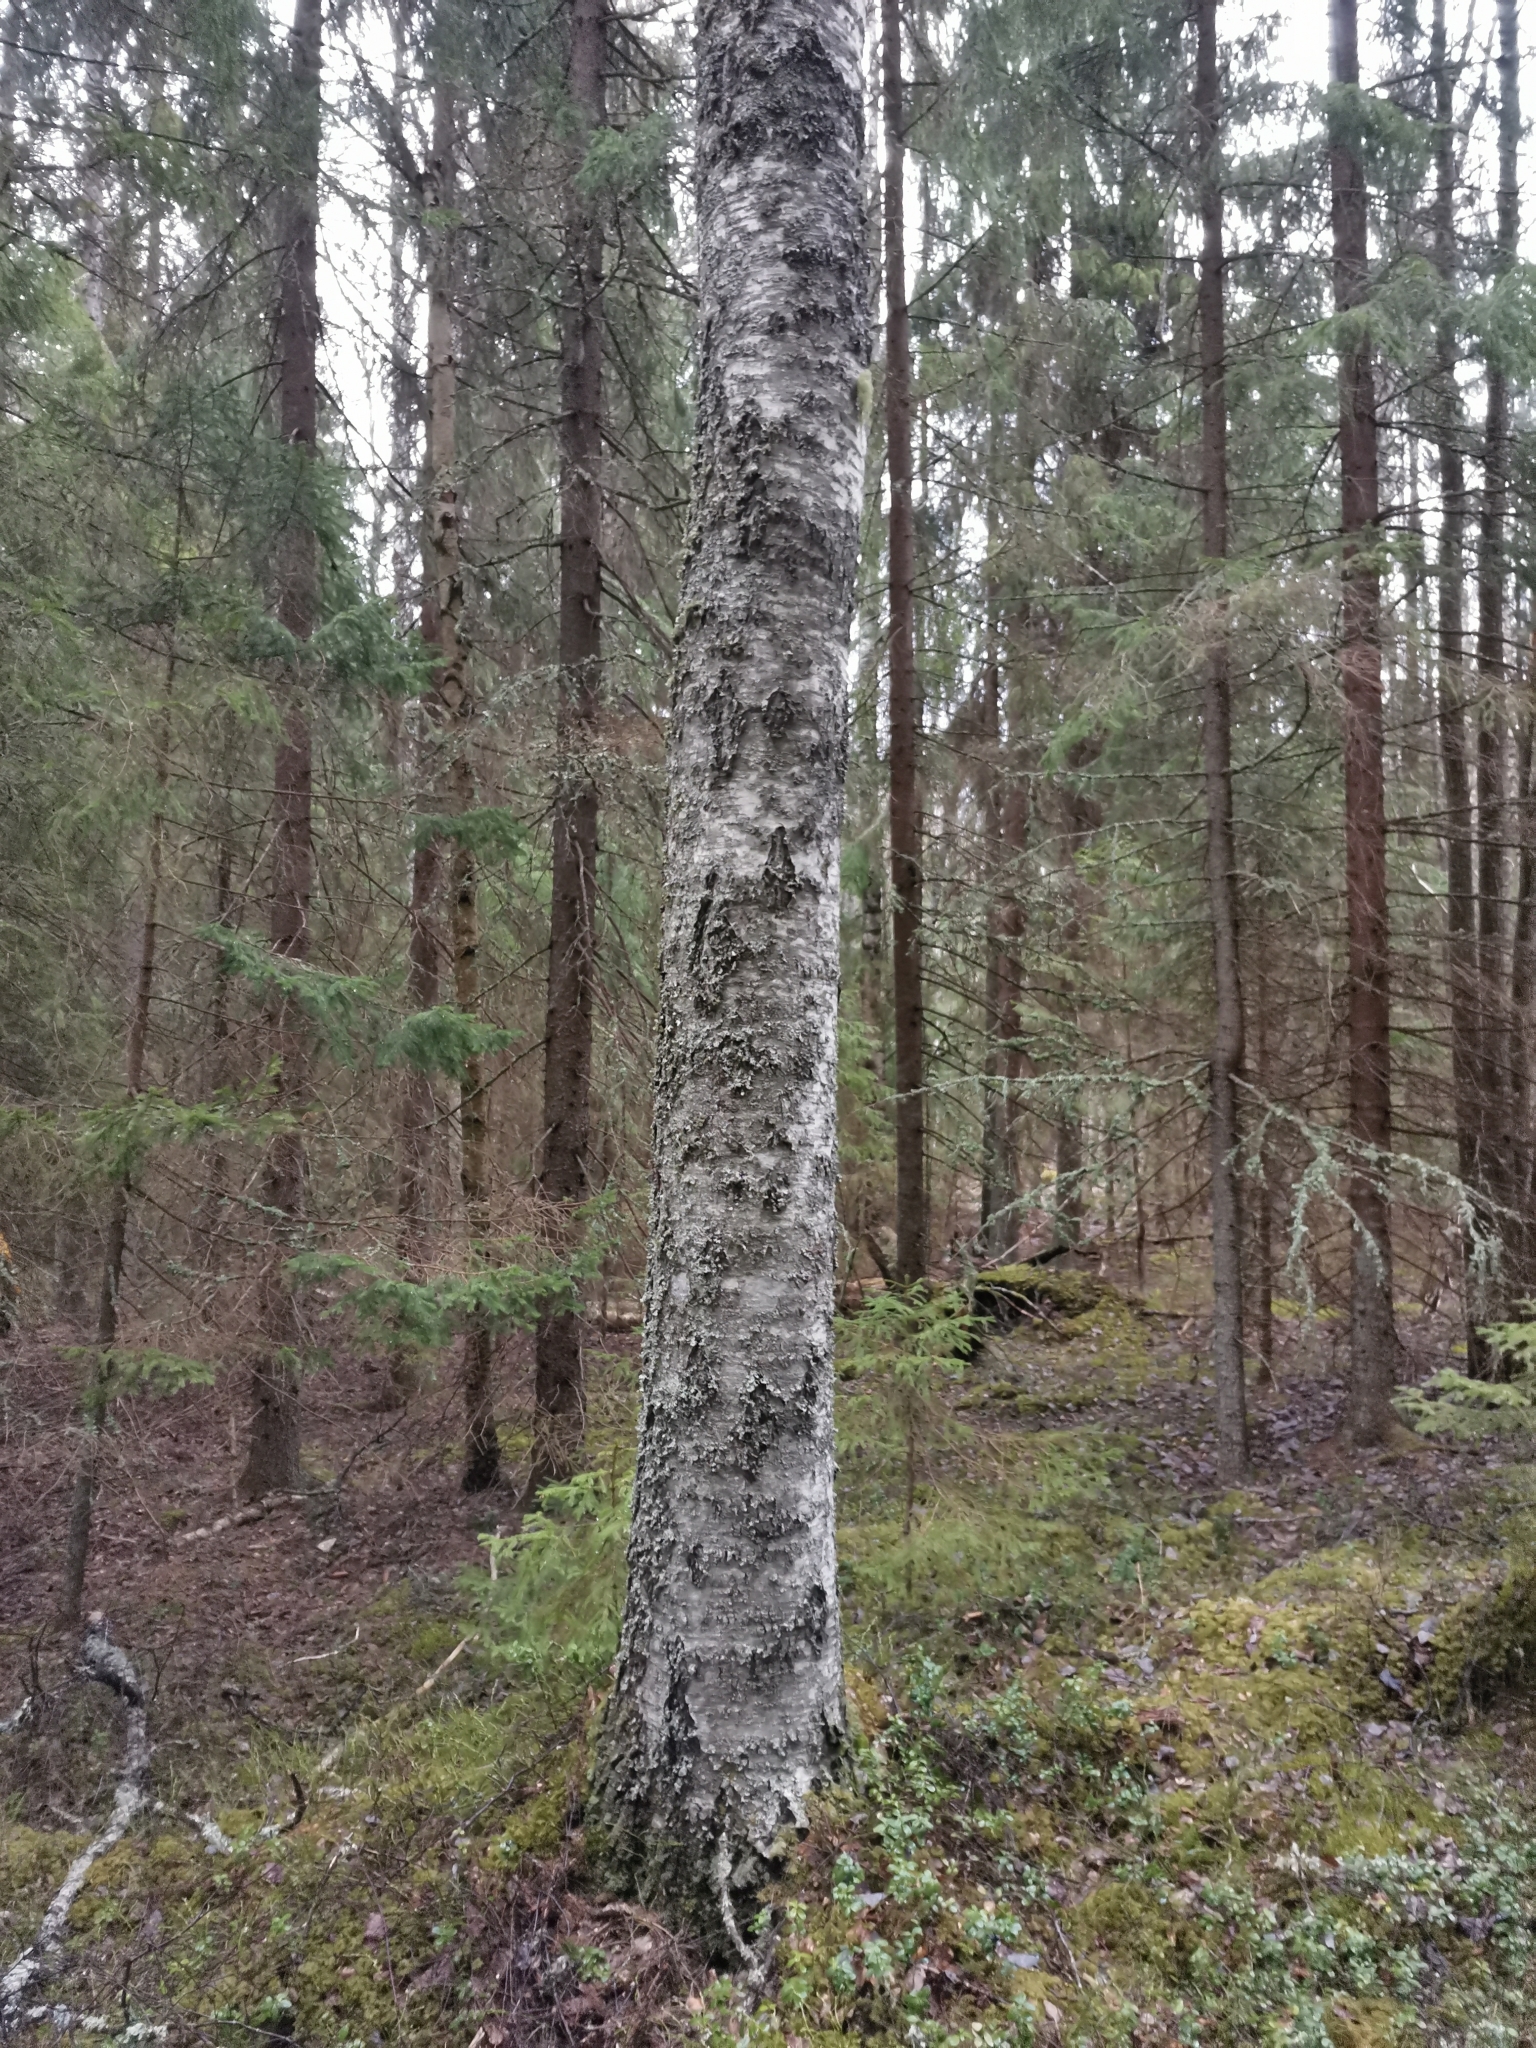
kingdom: Animalia
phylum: Chordata
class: Mammalia
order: Rodentia
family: Sciuridae
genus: Pteromys
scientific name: Pteromys volans
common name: Siberian flying squirrel
